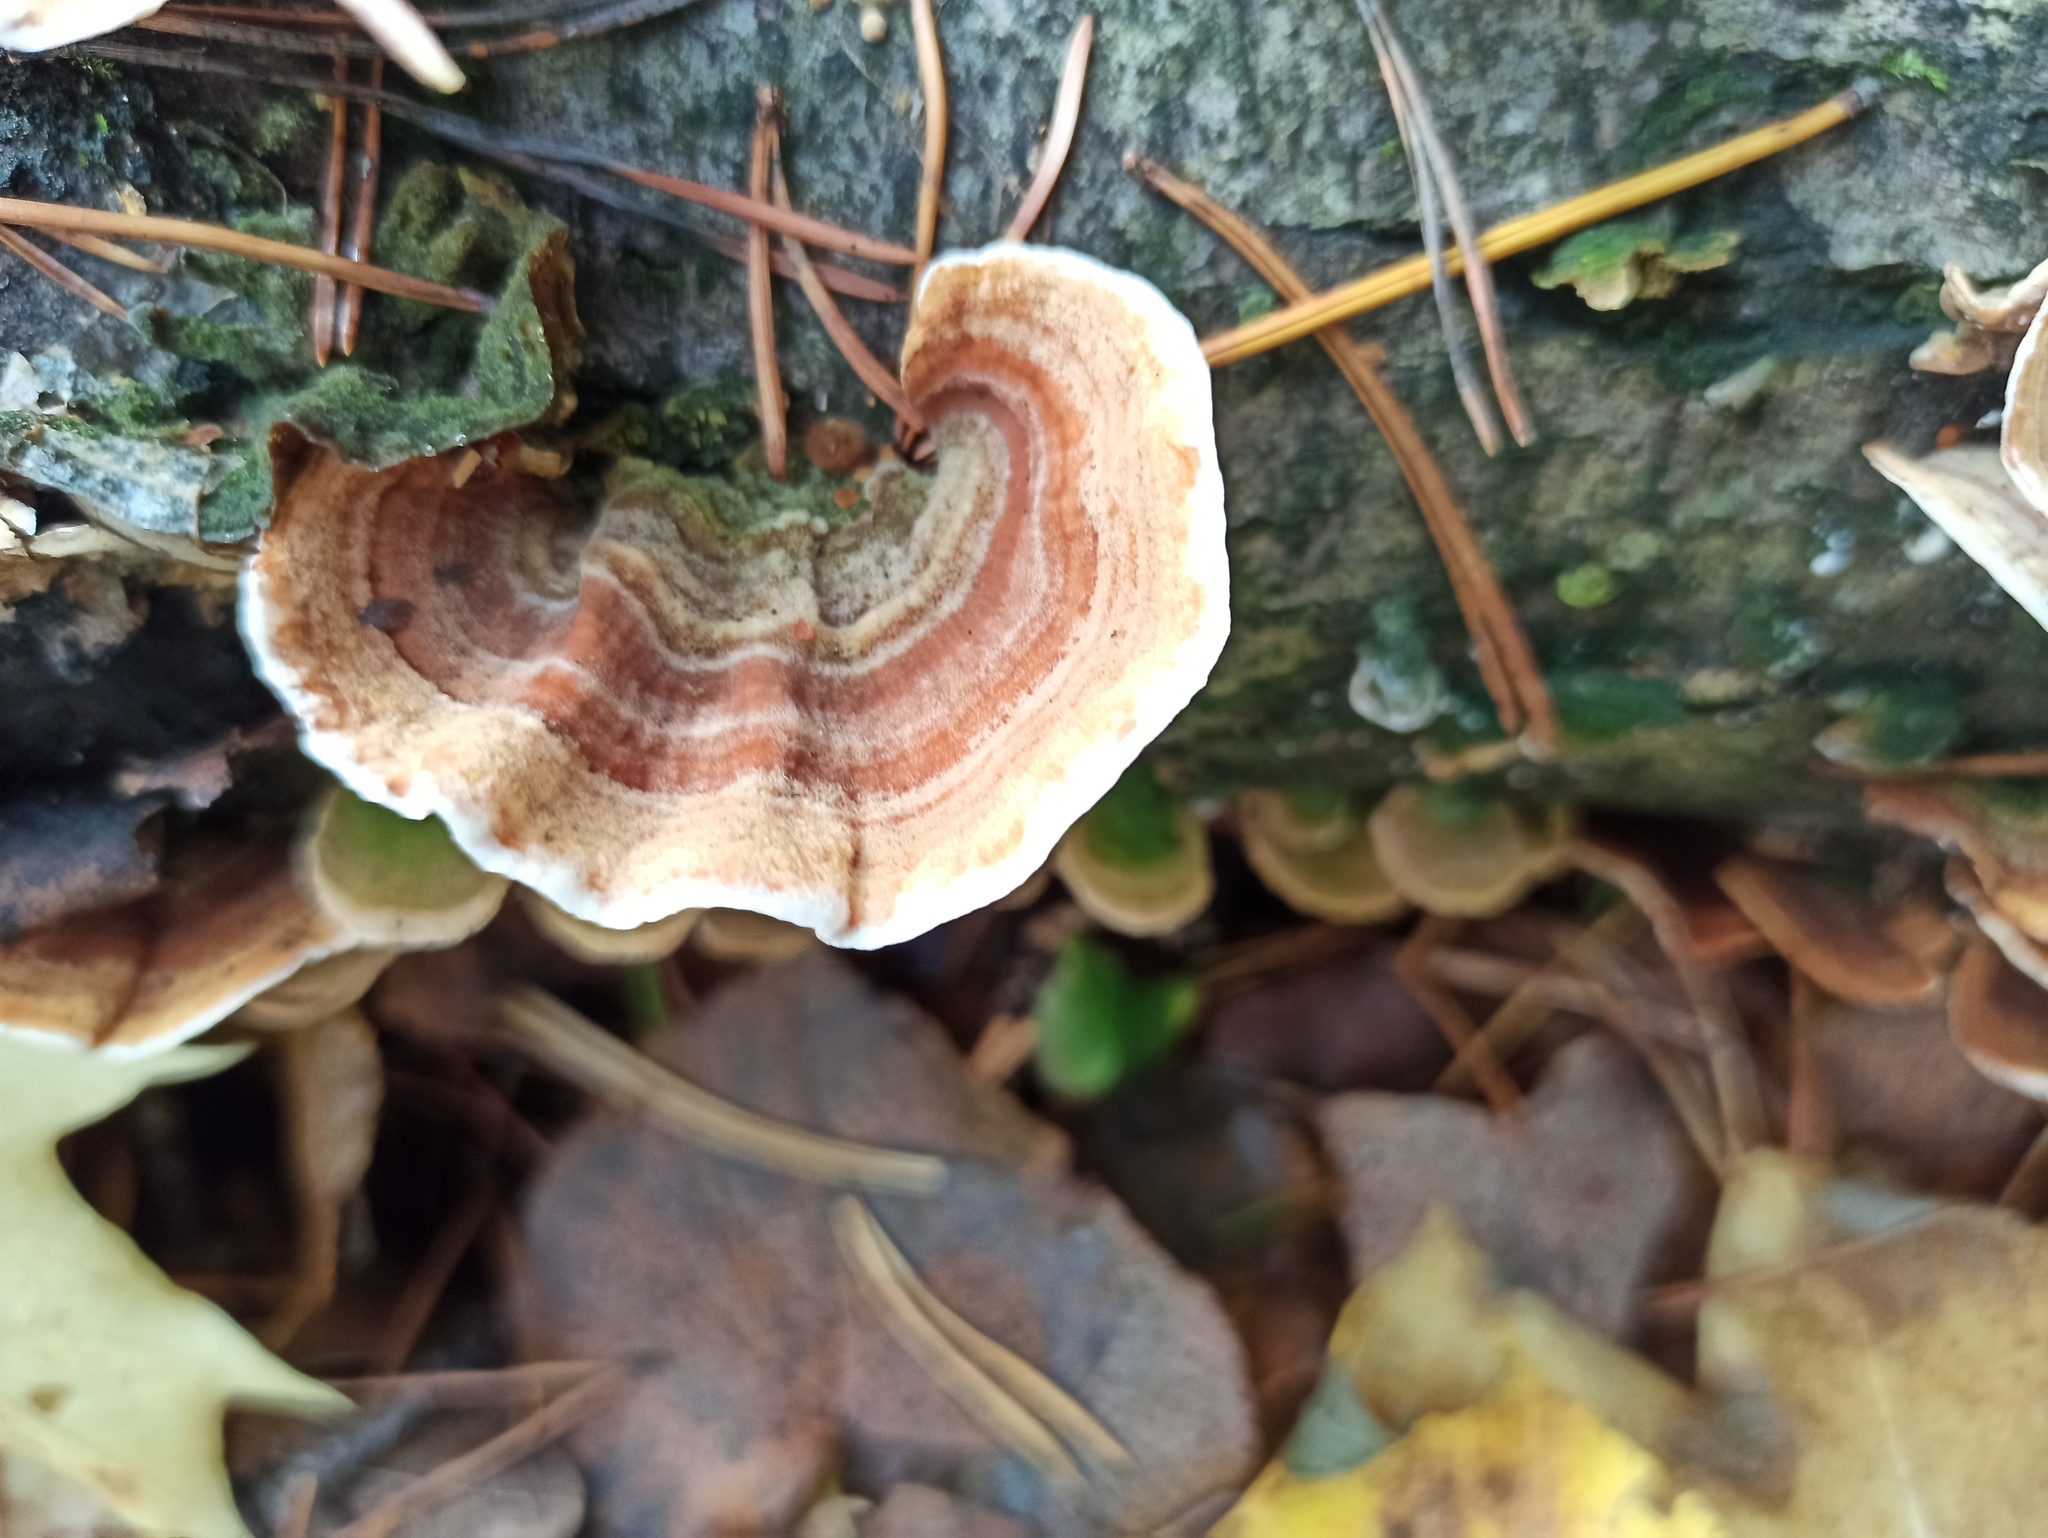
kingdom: Fungi
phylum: Basidiomycota
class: Agaricomycetes
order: Russulales
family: Stereaceae
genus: Stereum
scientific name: Stereum subtomentosum
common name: Yellowing curtain crust
